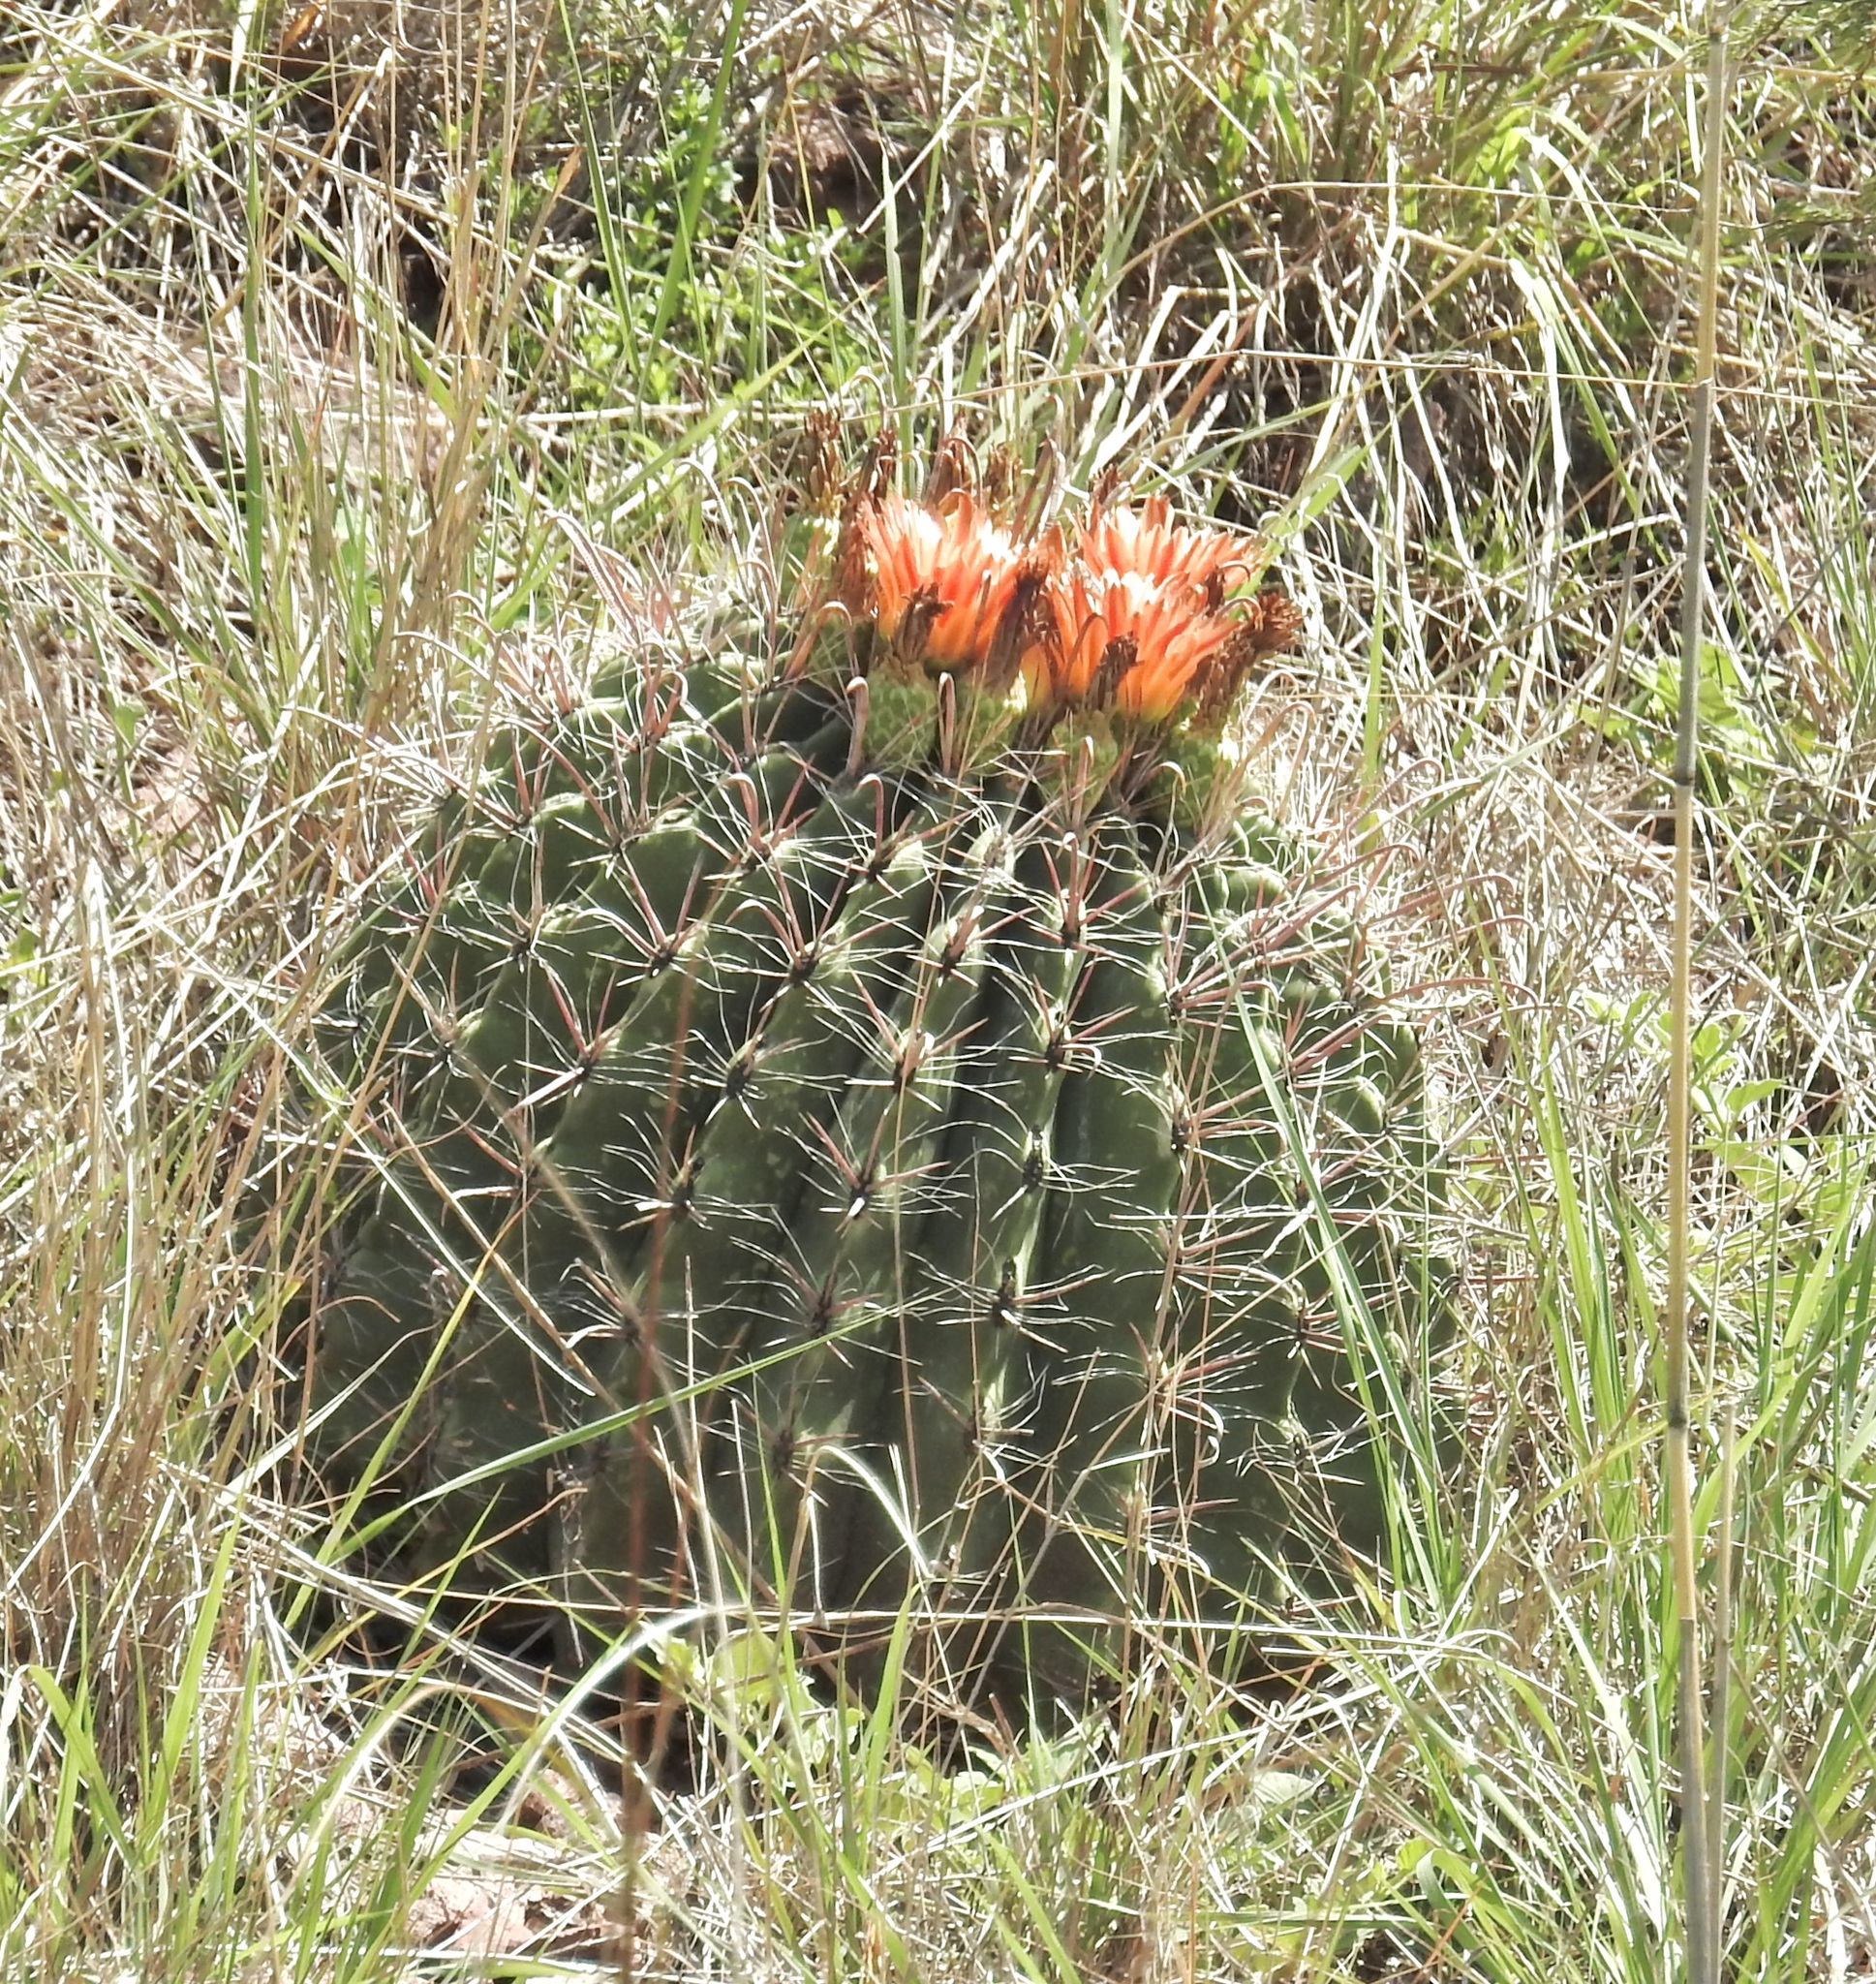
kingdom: Plantae
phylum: Tracheophyta
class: Magnoliopsida
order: Caryophyllales
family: Cactaceae
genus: Ferocactus
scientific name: Ferocactus wislizeni
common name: Candy barrel cactus
